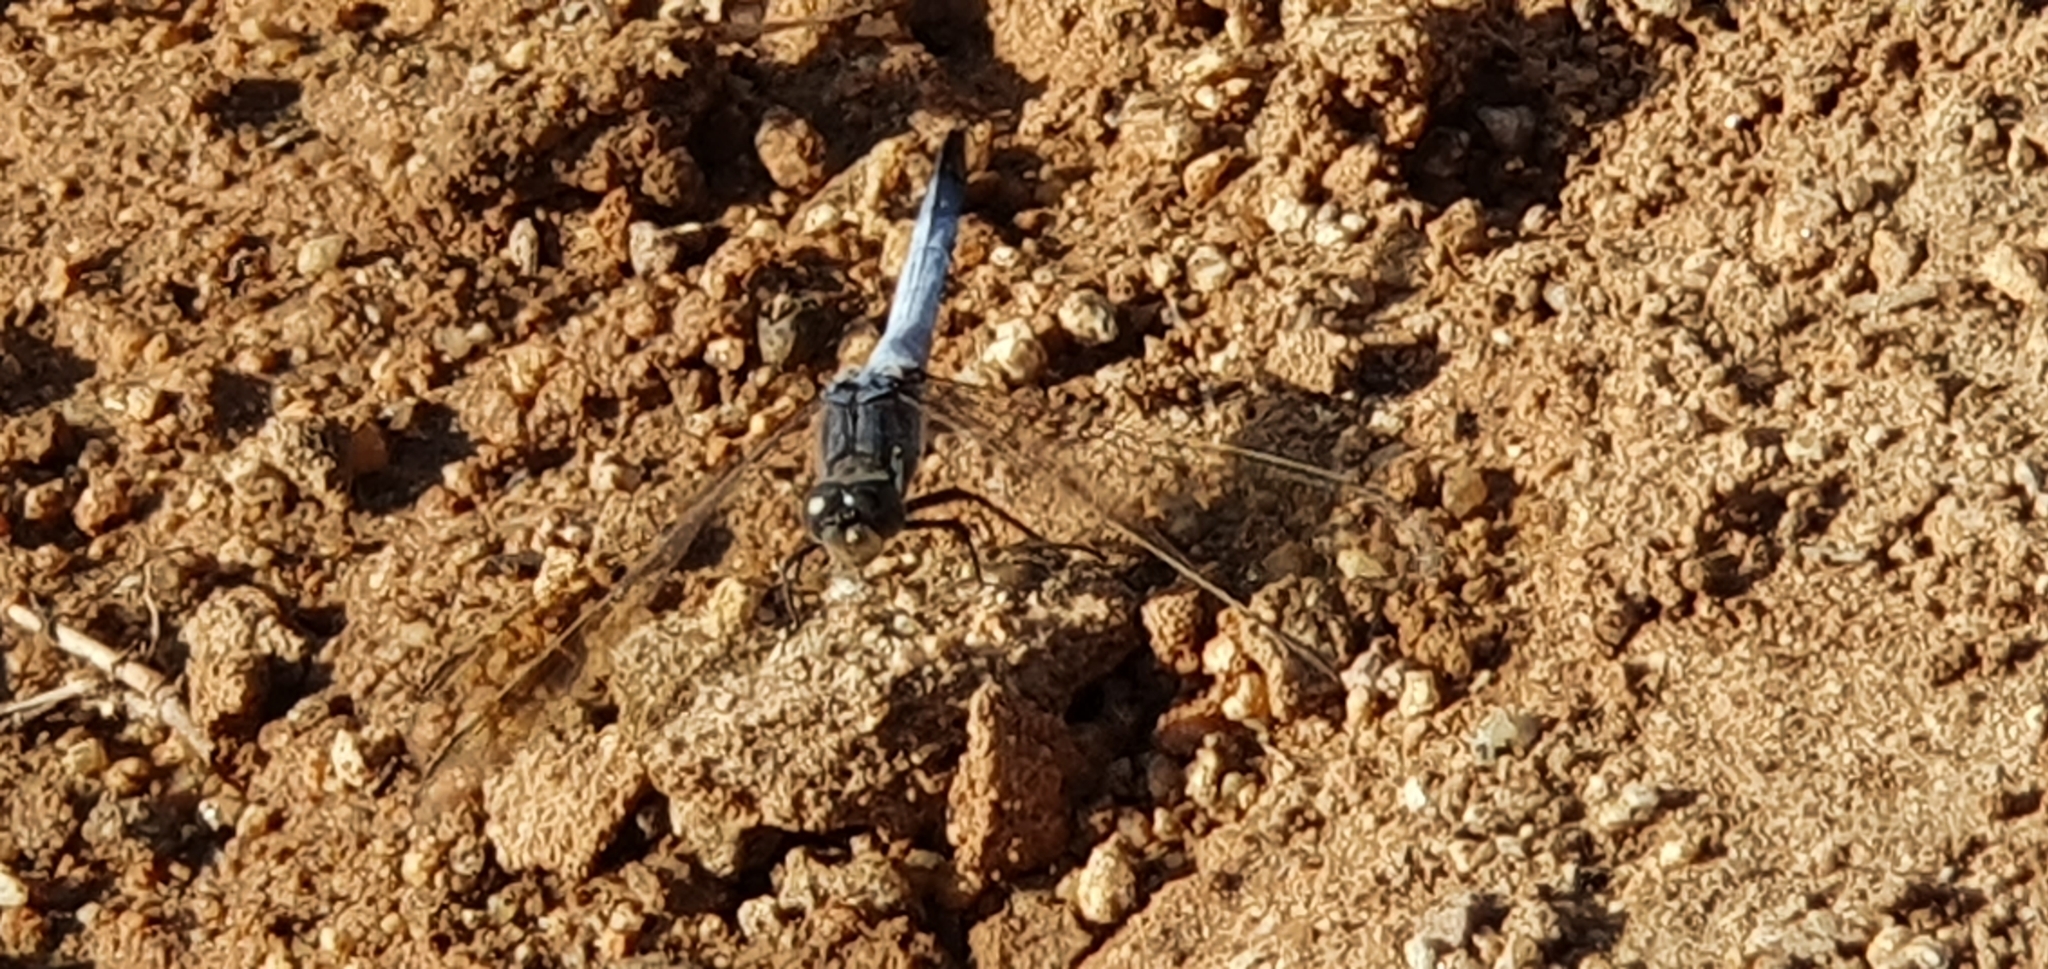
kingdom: Animalia
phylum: Arthropoda
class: Insecta
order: Odonata
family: Libellulidae
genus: Orthetrum
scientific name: Orthetrum caledonicum
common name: Blue skimmer
